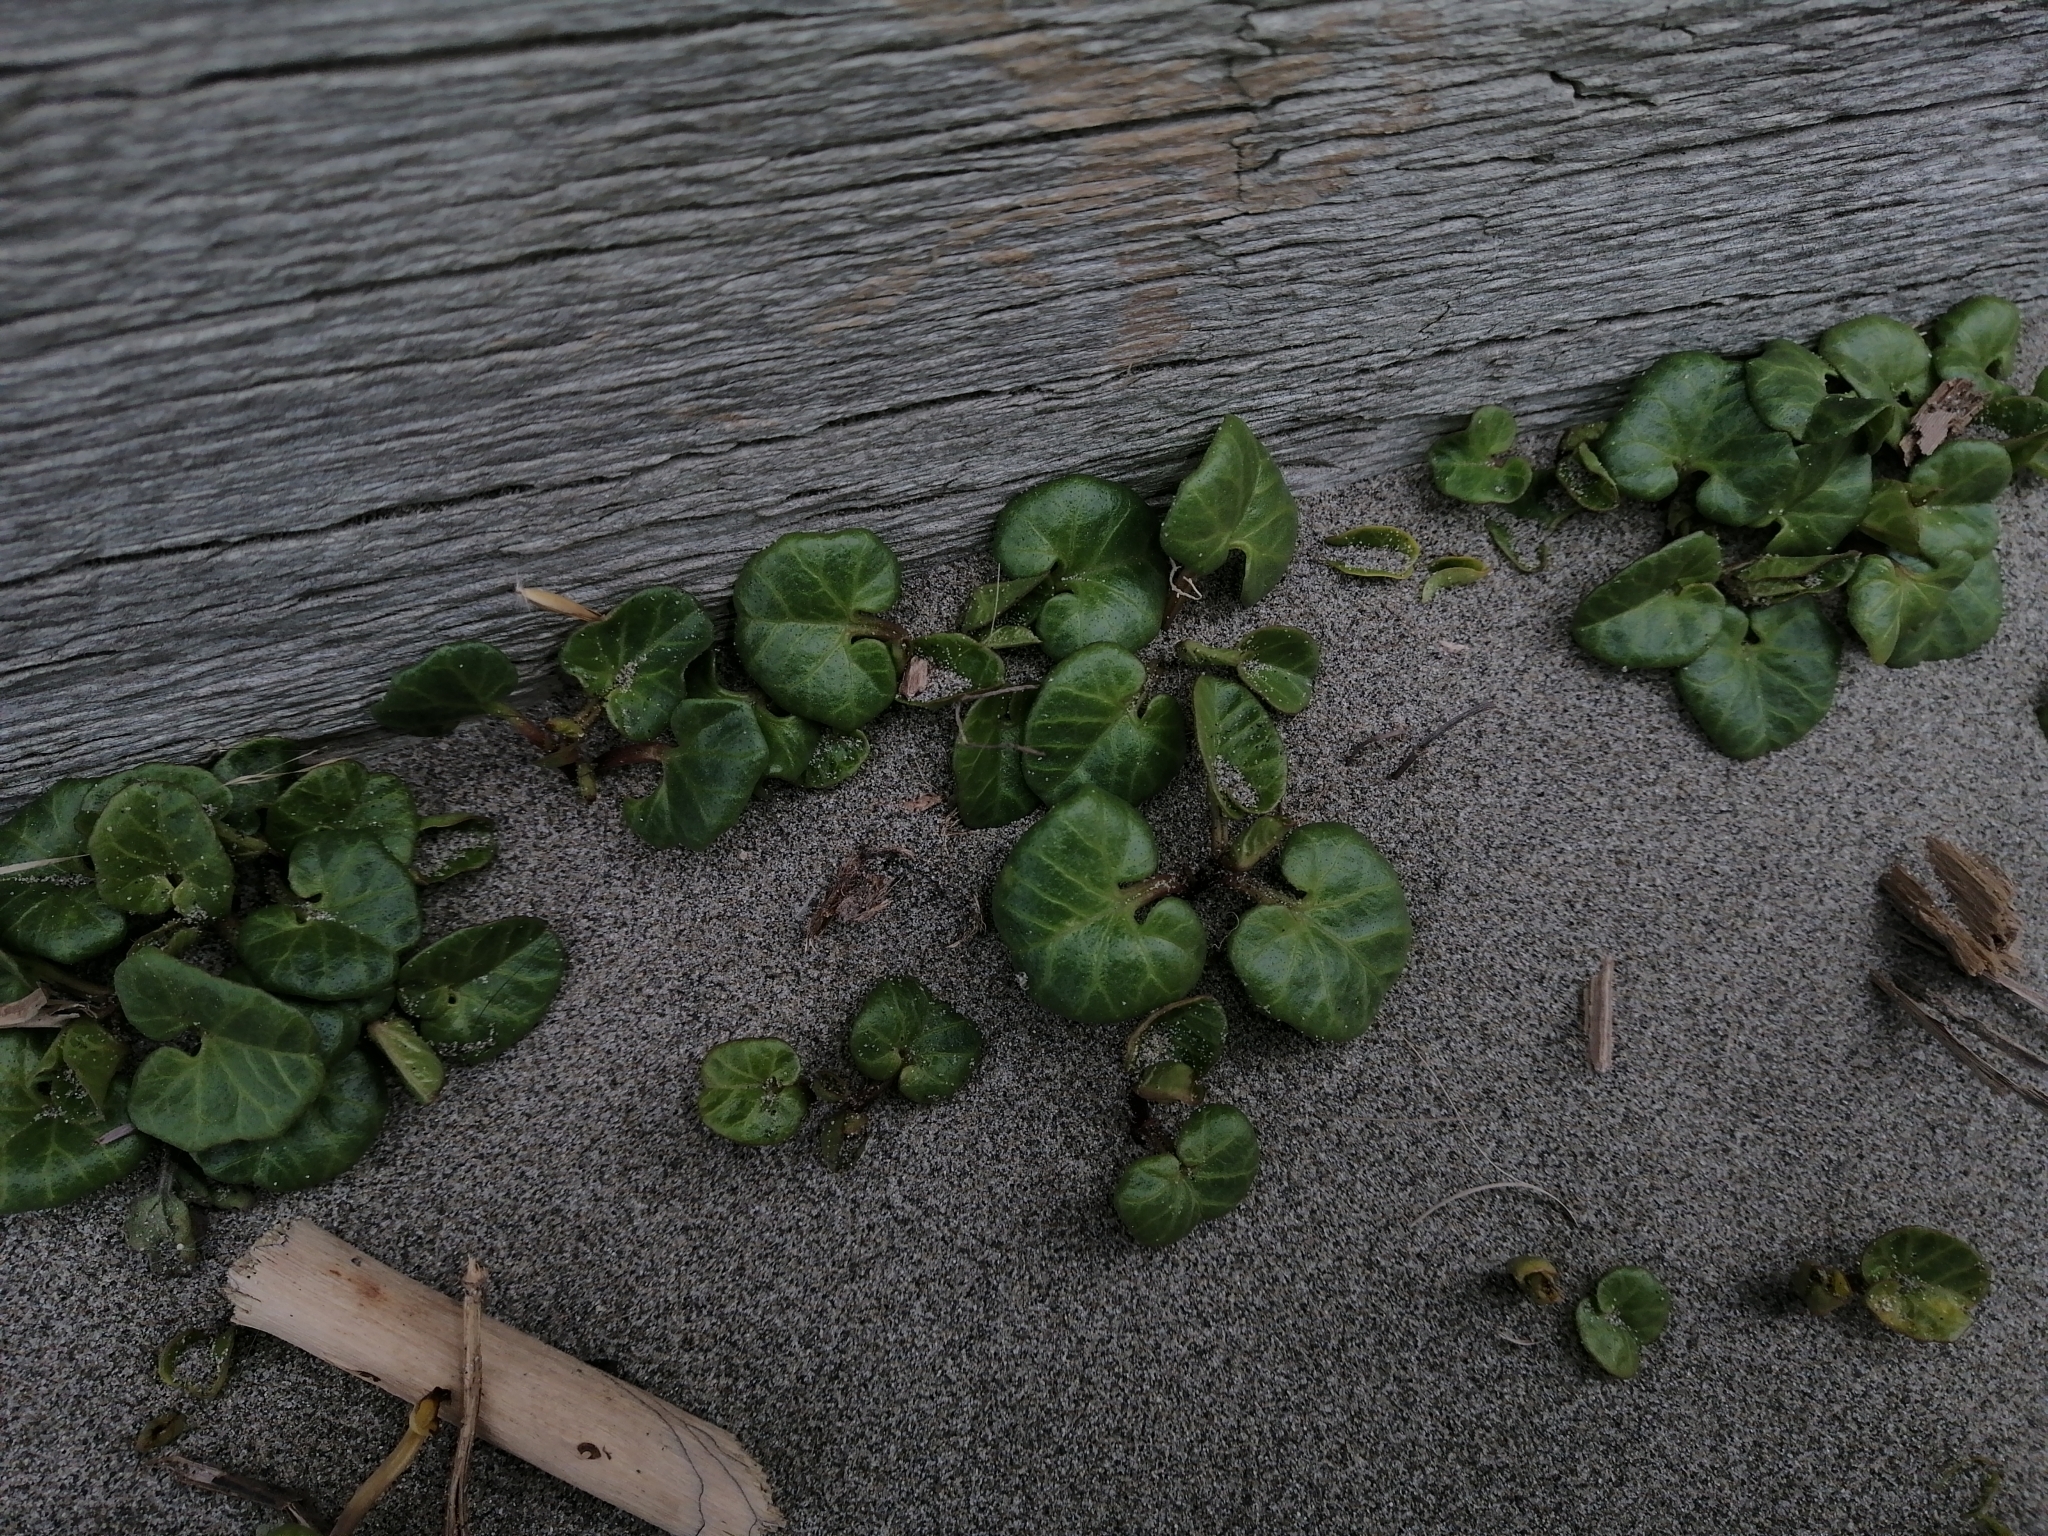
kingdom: Plantae
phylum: Tracheophyta
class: Magnoliopsida
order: Solanales
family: Convolvulaceae
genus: Calystegia
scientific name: Calystegia soldanella
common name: Sea bindweed
